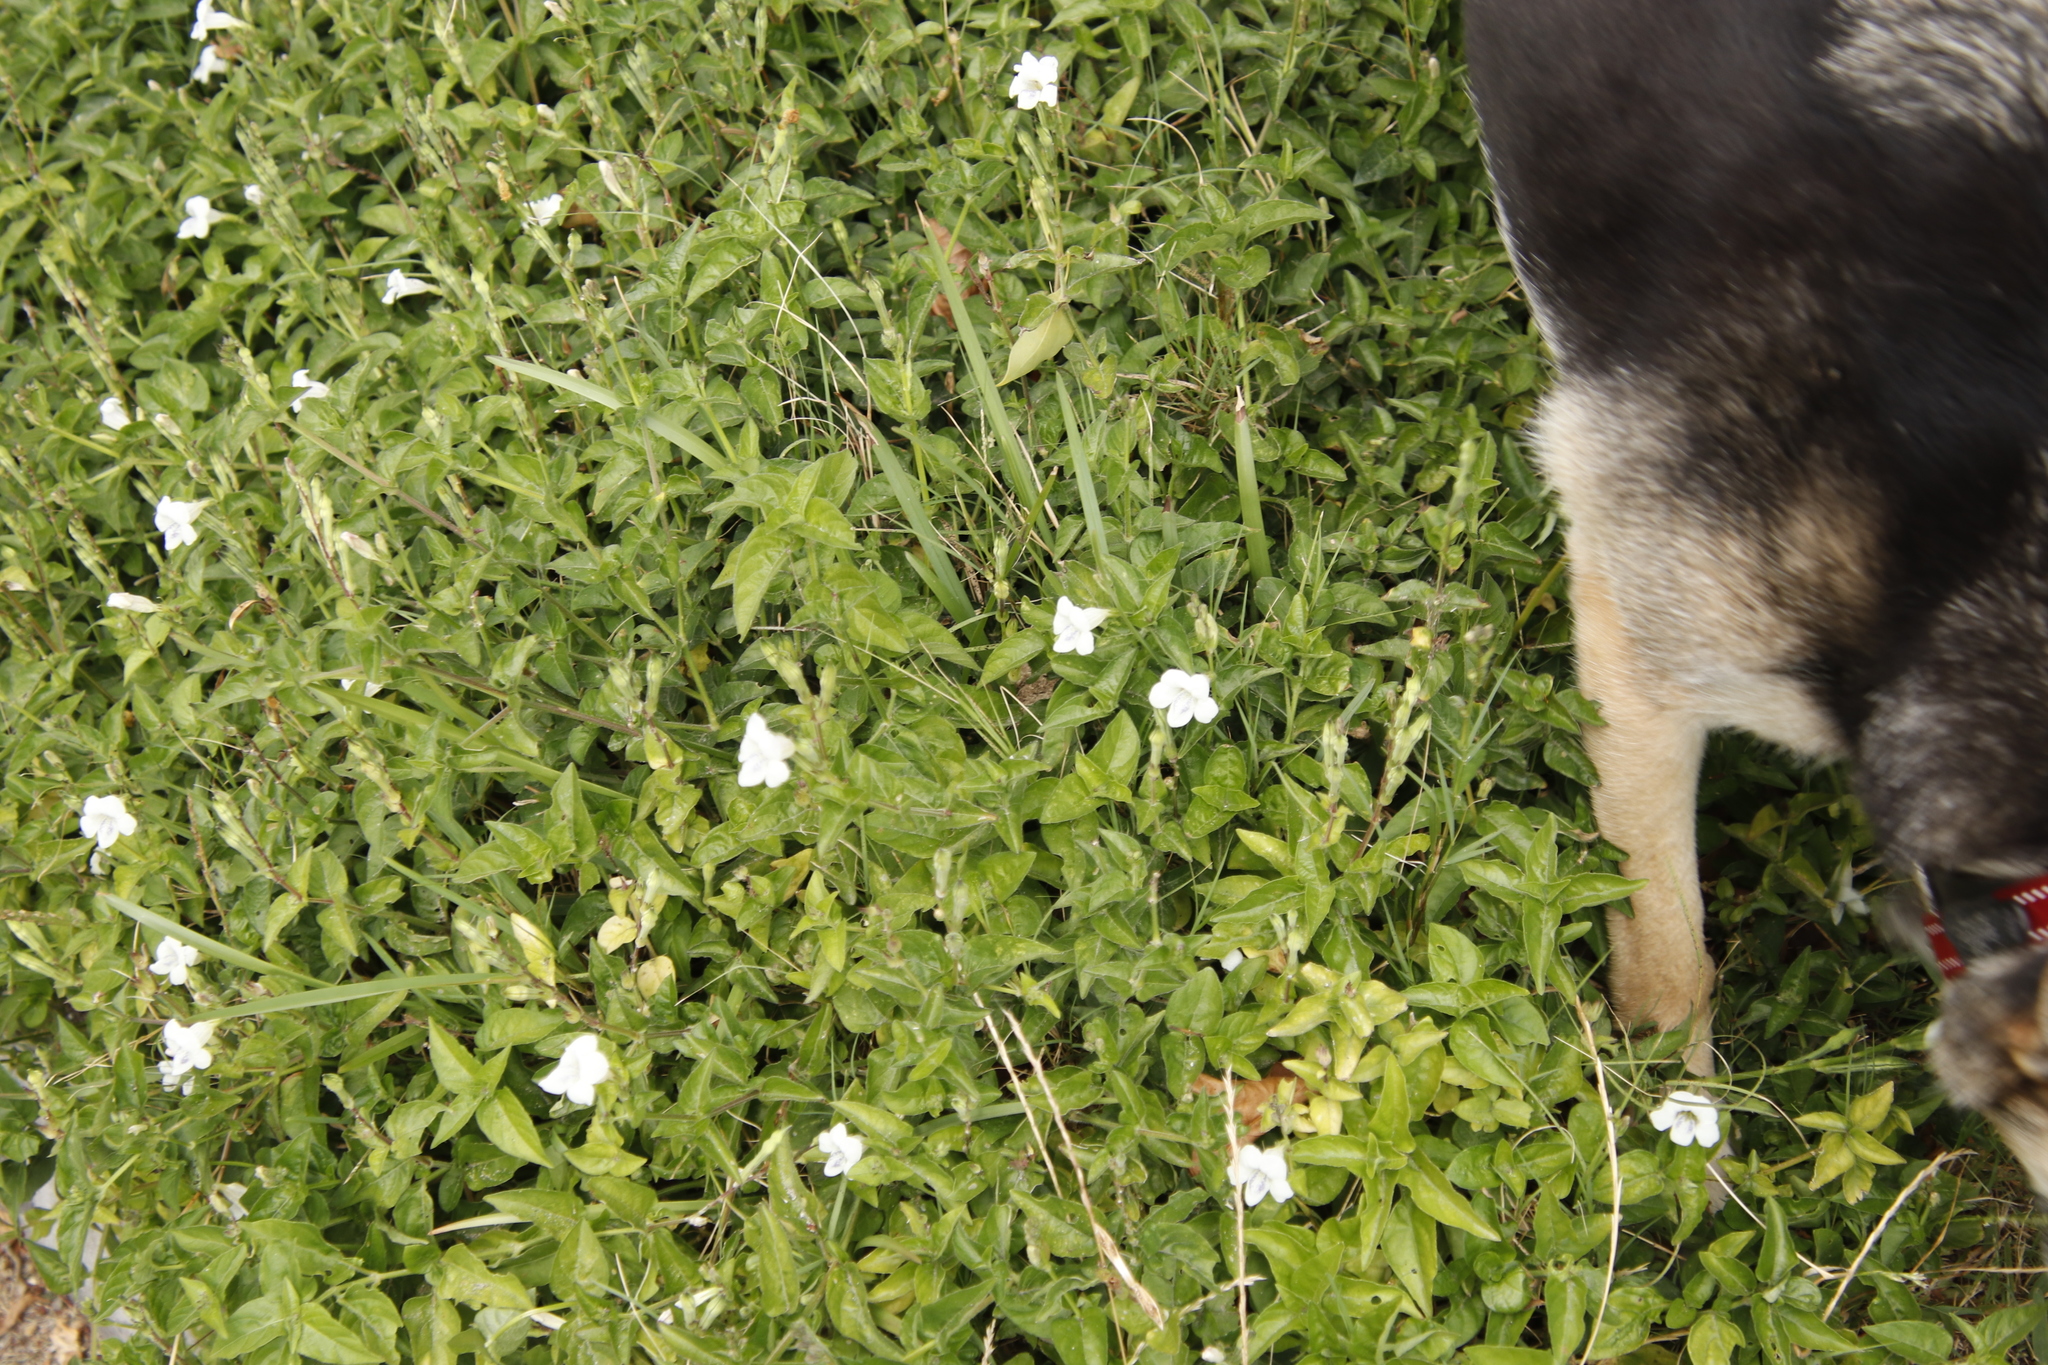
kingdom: Plantae
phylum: Tracheophyta
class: Magnoliopsida
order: Lamiales
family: Acanthaceae
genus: Asystasia
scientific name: Asystasia intrusa
